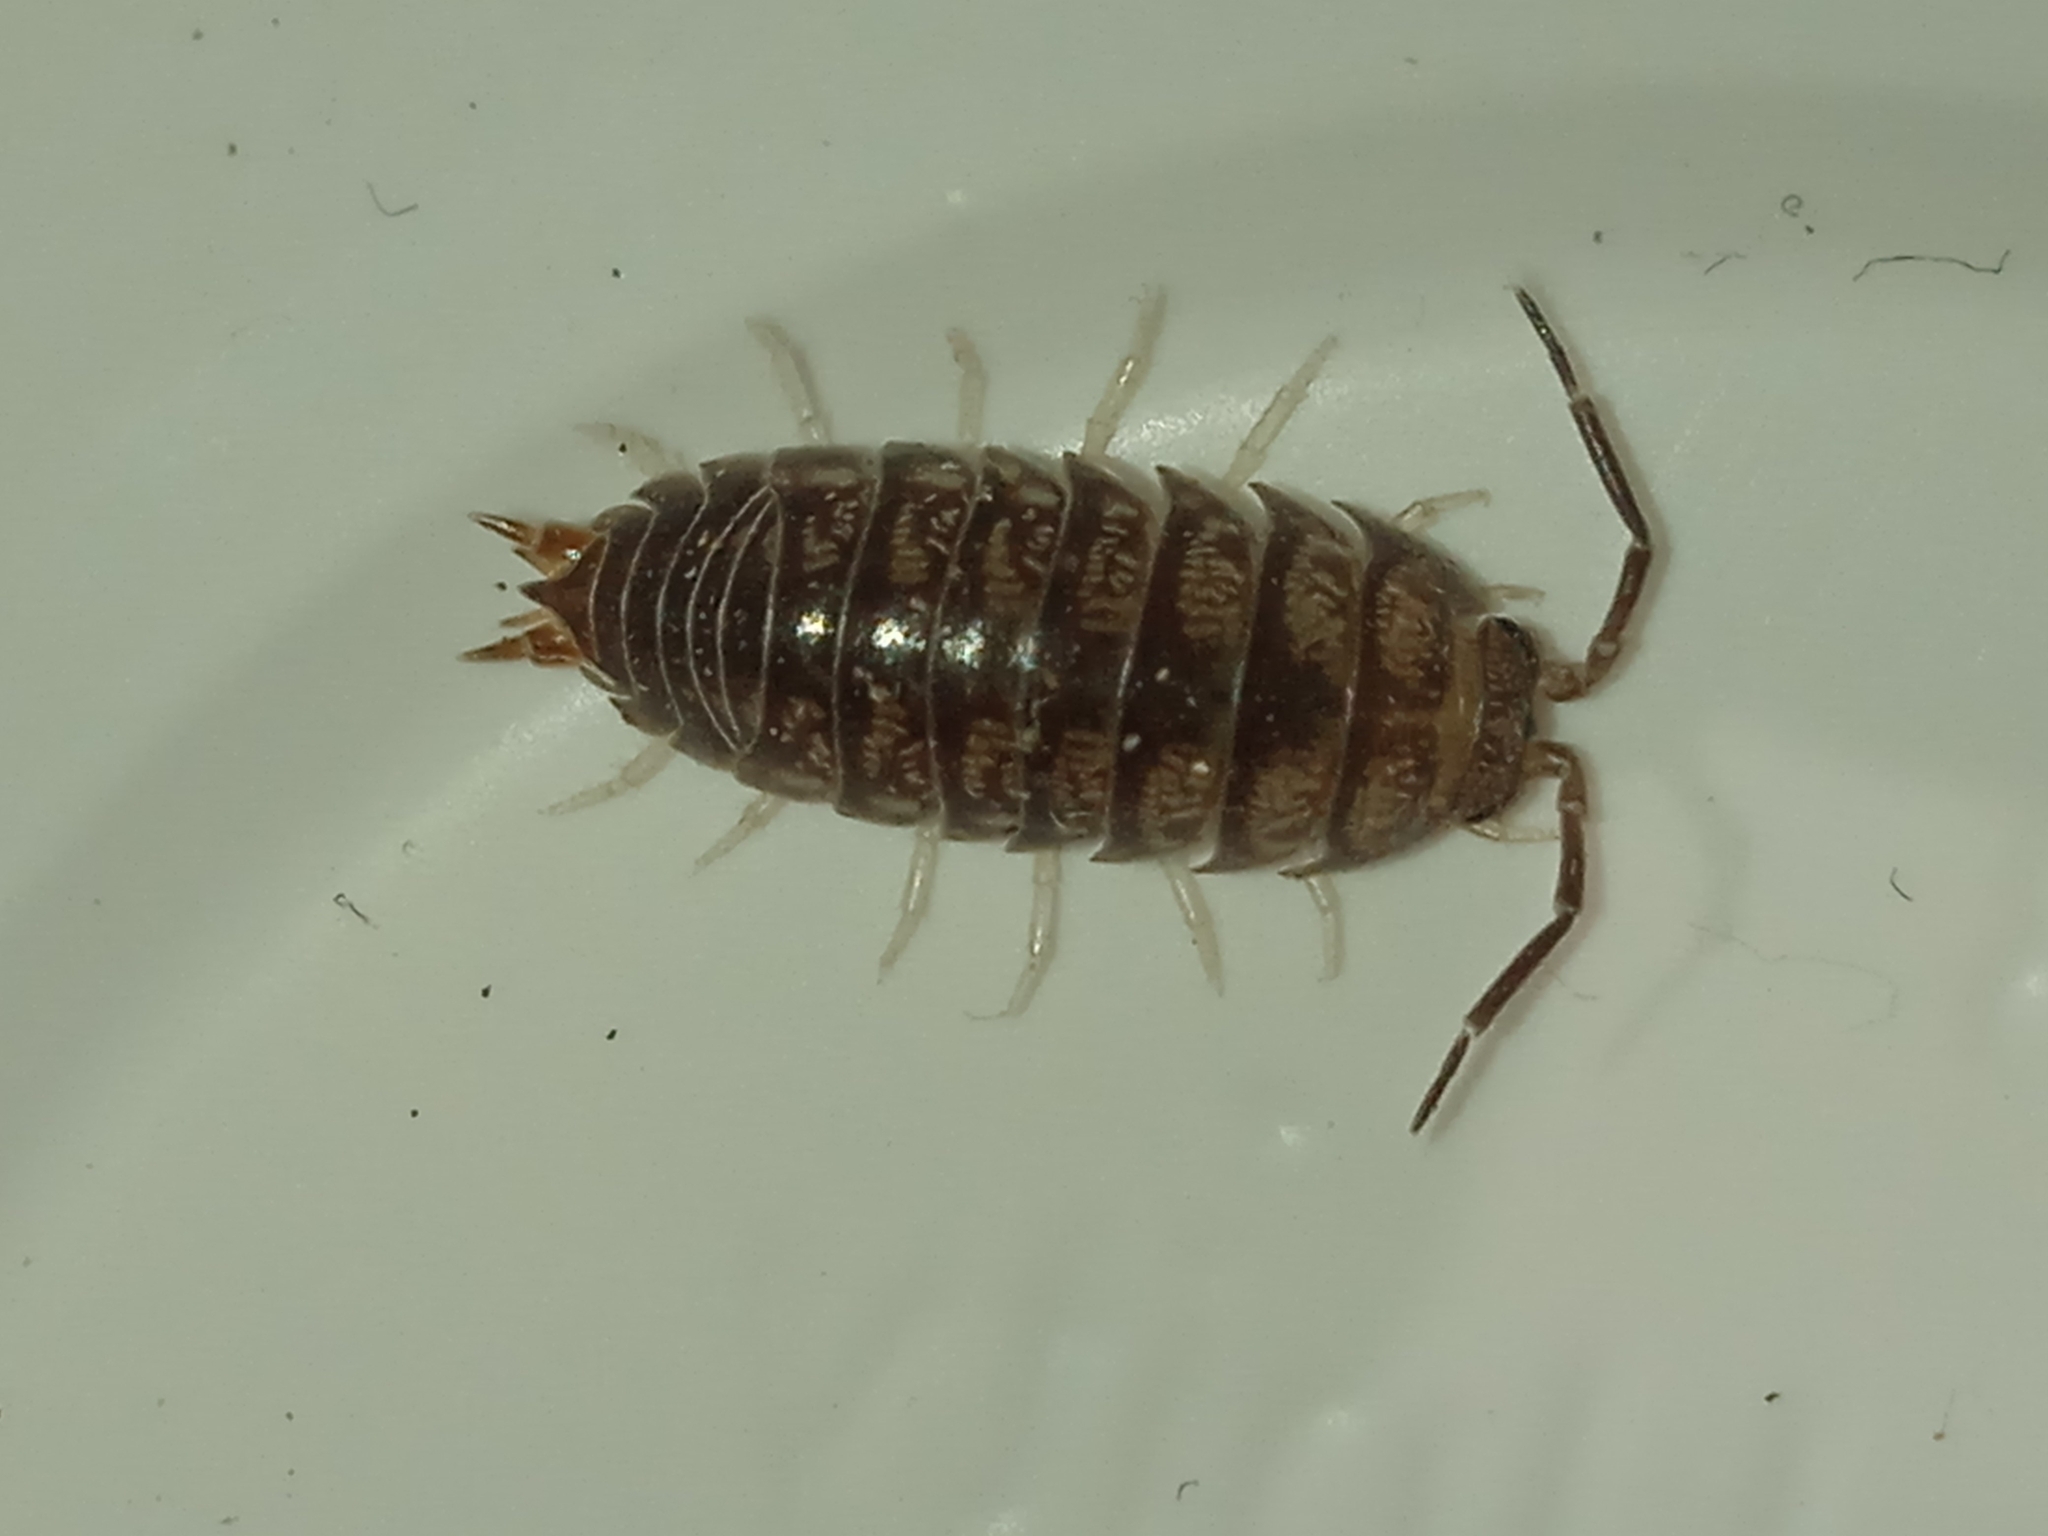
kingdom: Animalia
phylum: Arthropoda
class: Malacostraca
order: Isopoda
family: Cylisticidae
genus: Cylisticus
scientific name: Cylisticus convexus
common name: Curly woodlouse
